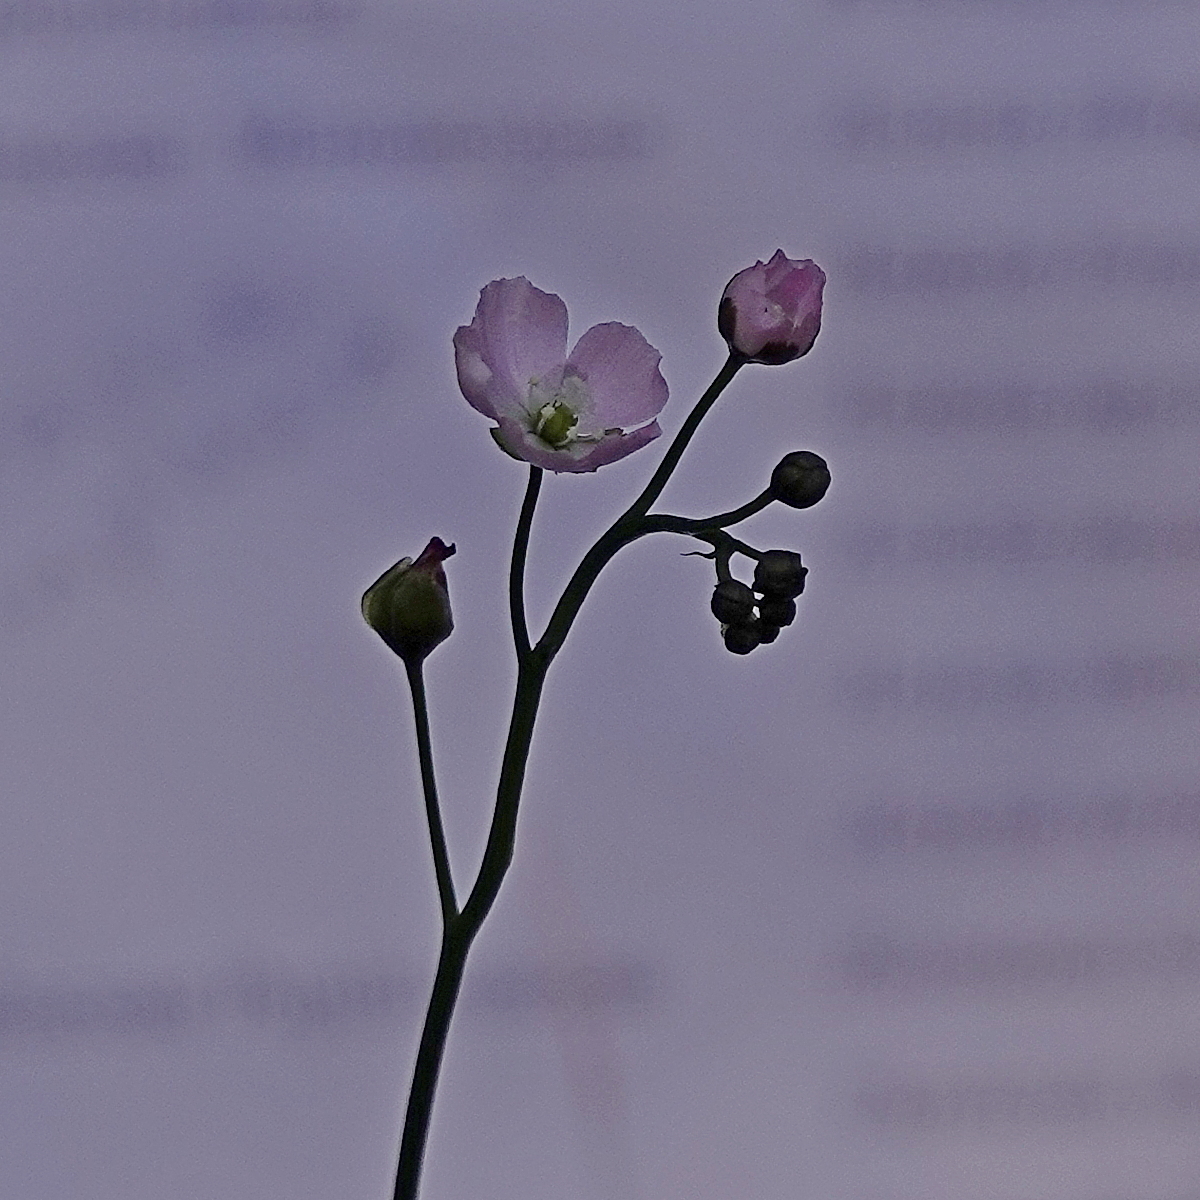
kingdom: Plantae
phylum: Tracheophyta
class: Magnoliopsida
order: Caryophyllales
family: Droseraceae
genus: Drosera
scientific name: Drosera peltata
